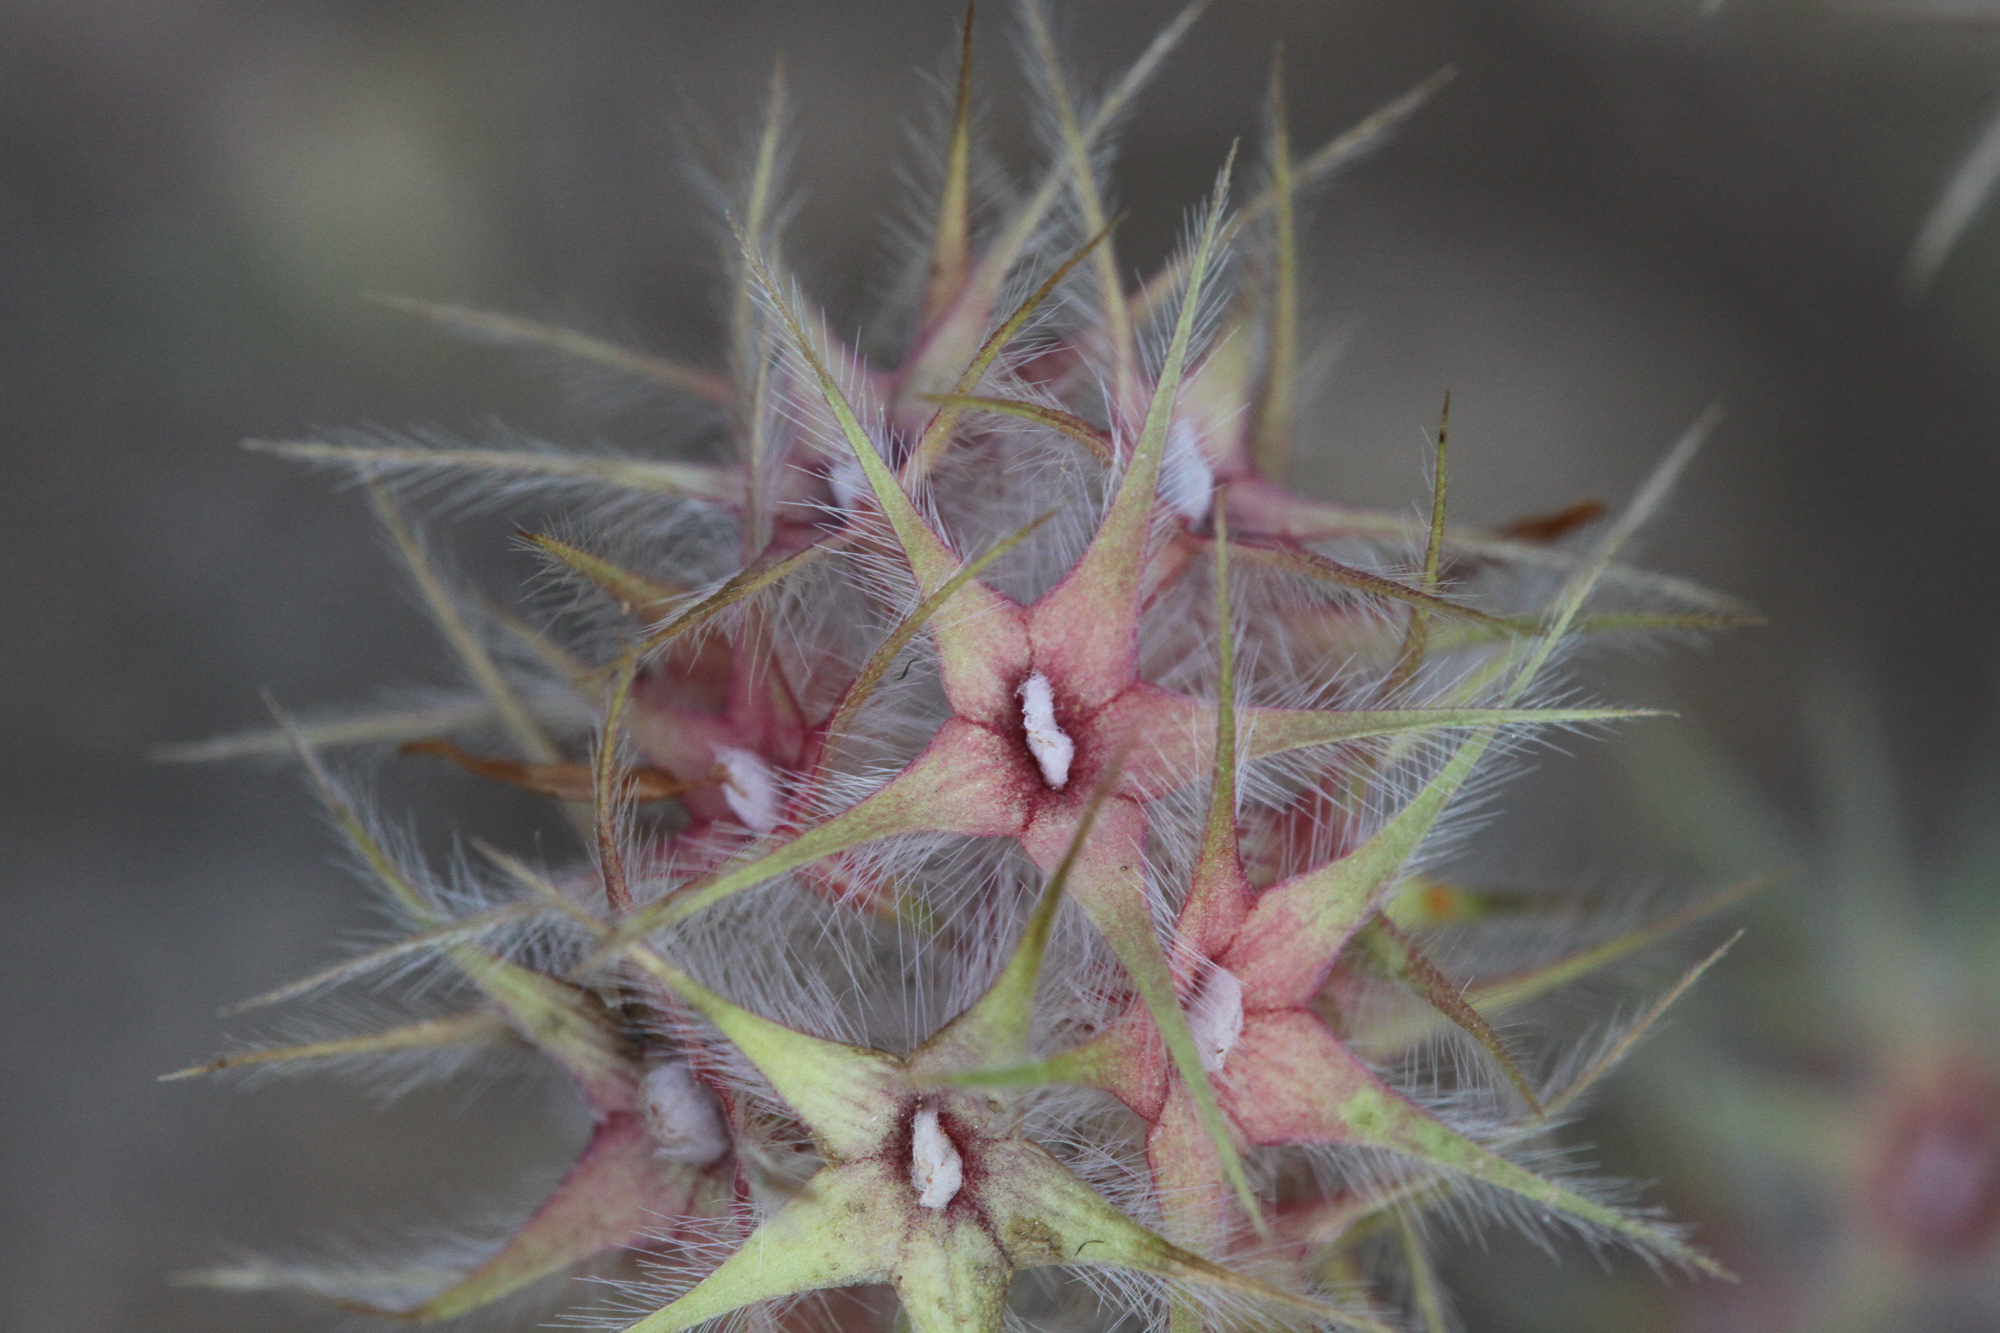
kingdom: Plantae
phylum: Tracheophyta
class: Magnoliopsida
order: Fabales
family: Fabaceae
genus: Trifolium
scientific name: Trifolium stellatum
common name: Starry clover
